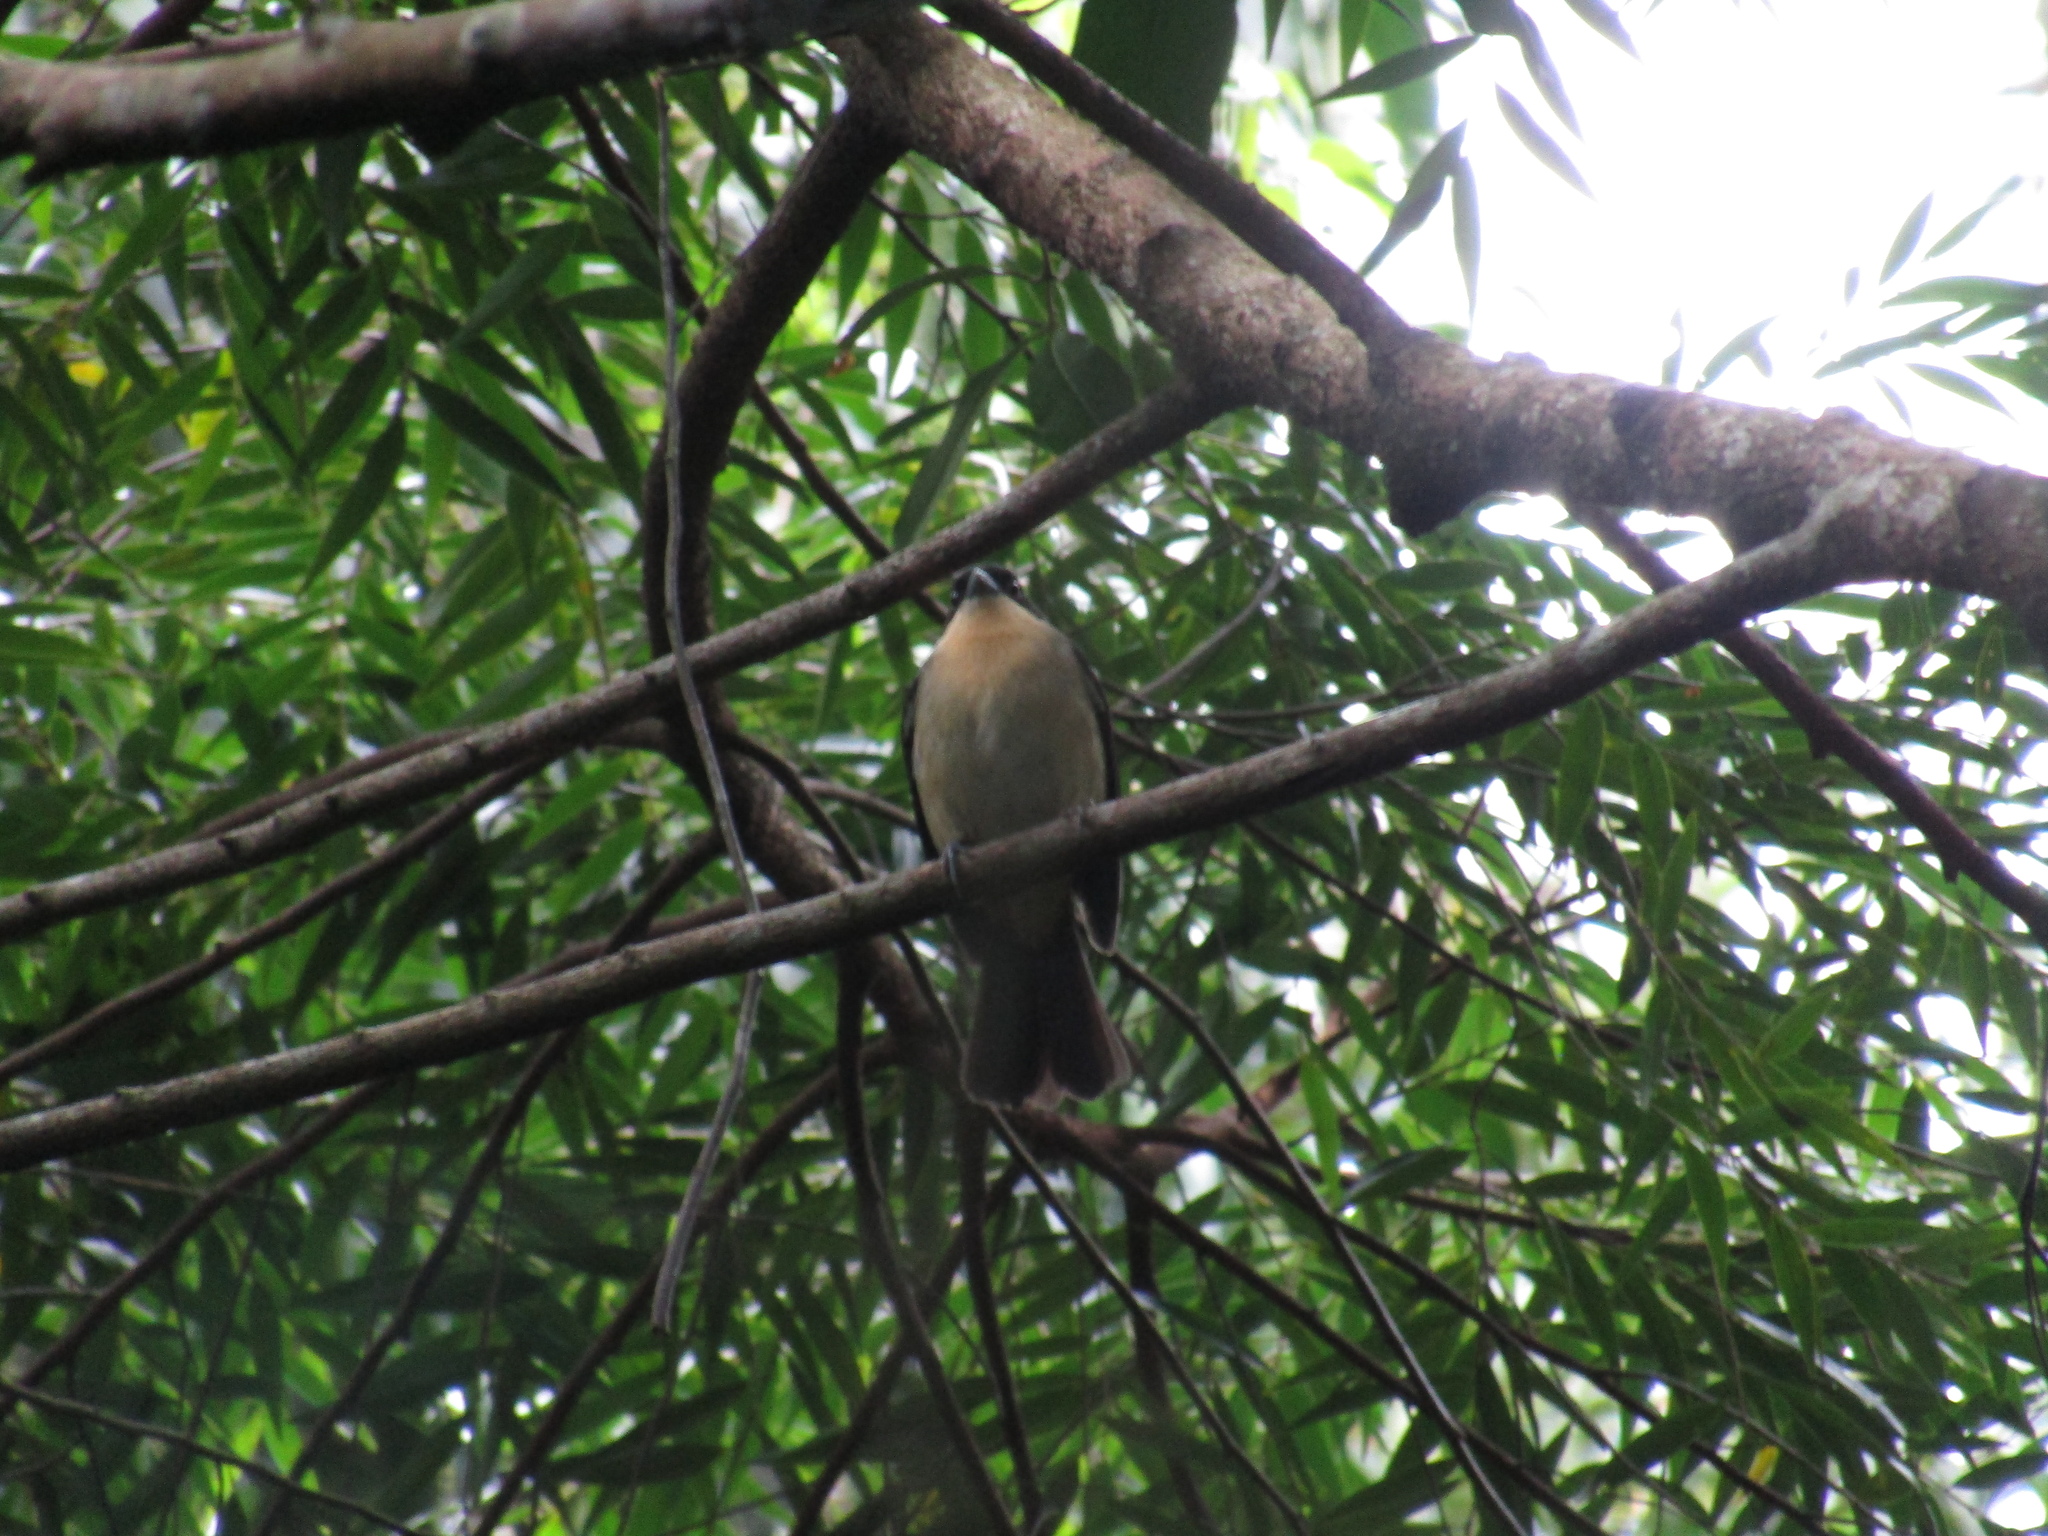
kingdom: Animalia
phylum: Chordata
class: Aves
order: Passeriformes
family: Thraupidae
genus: Trichothraupis
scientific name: Trichothraupis melanops
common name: Black-goggled tanager
